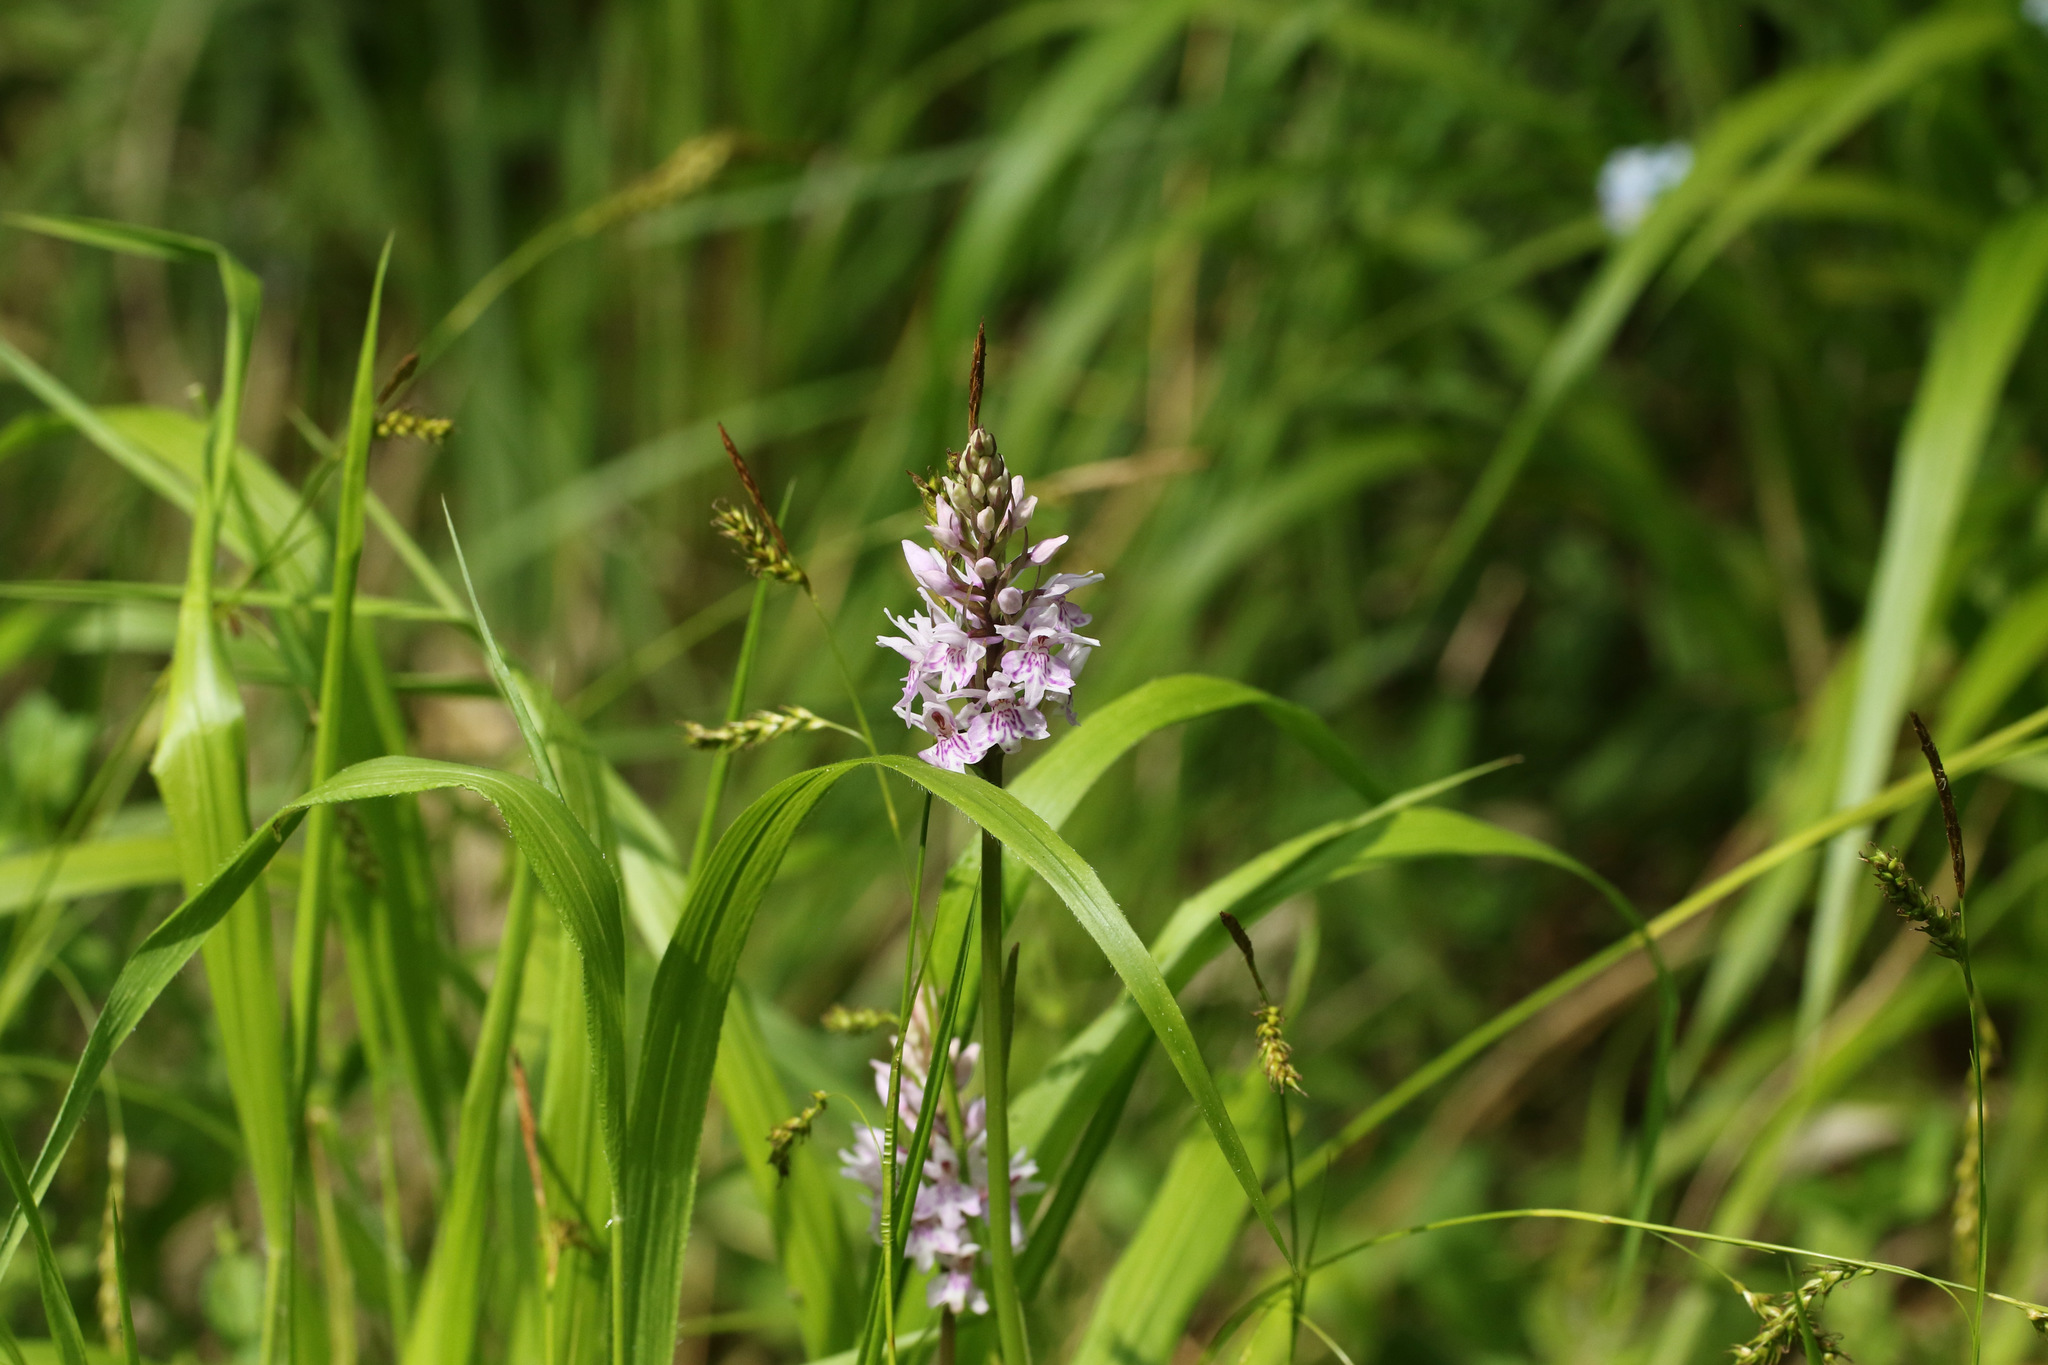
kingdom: Plantae
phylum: Tracheophyta
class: Liliopsida
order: Asparagales
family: Orchidaceae
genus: Dactylorhiza
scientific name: Dactylorhiza maculata
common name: Heath spotted-orchid
